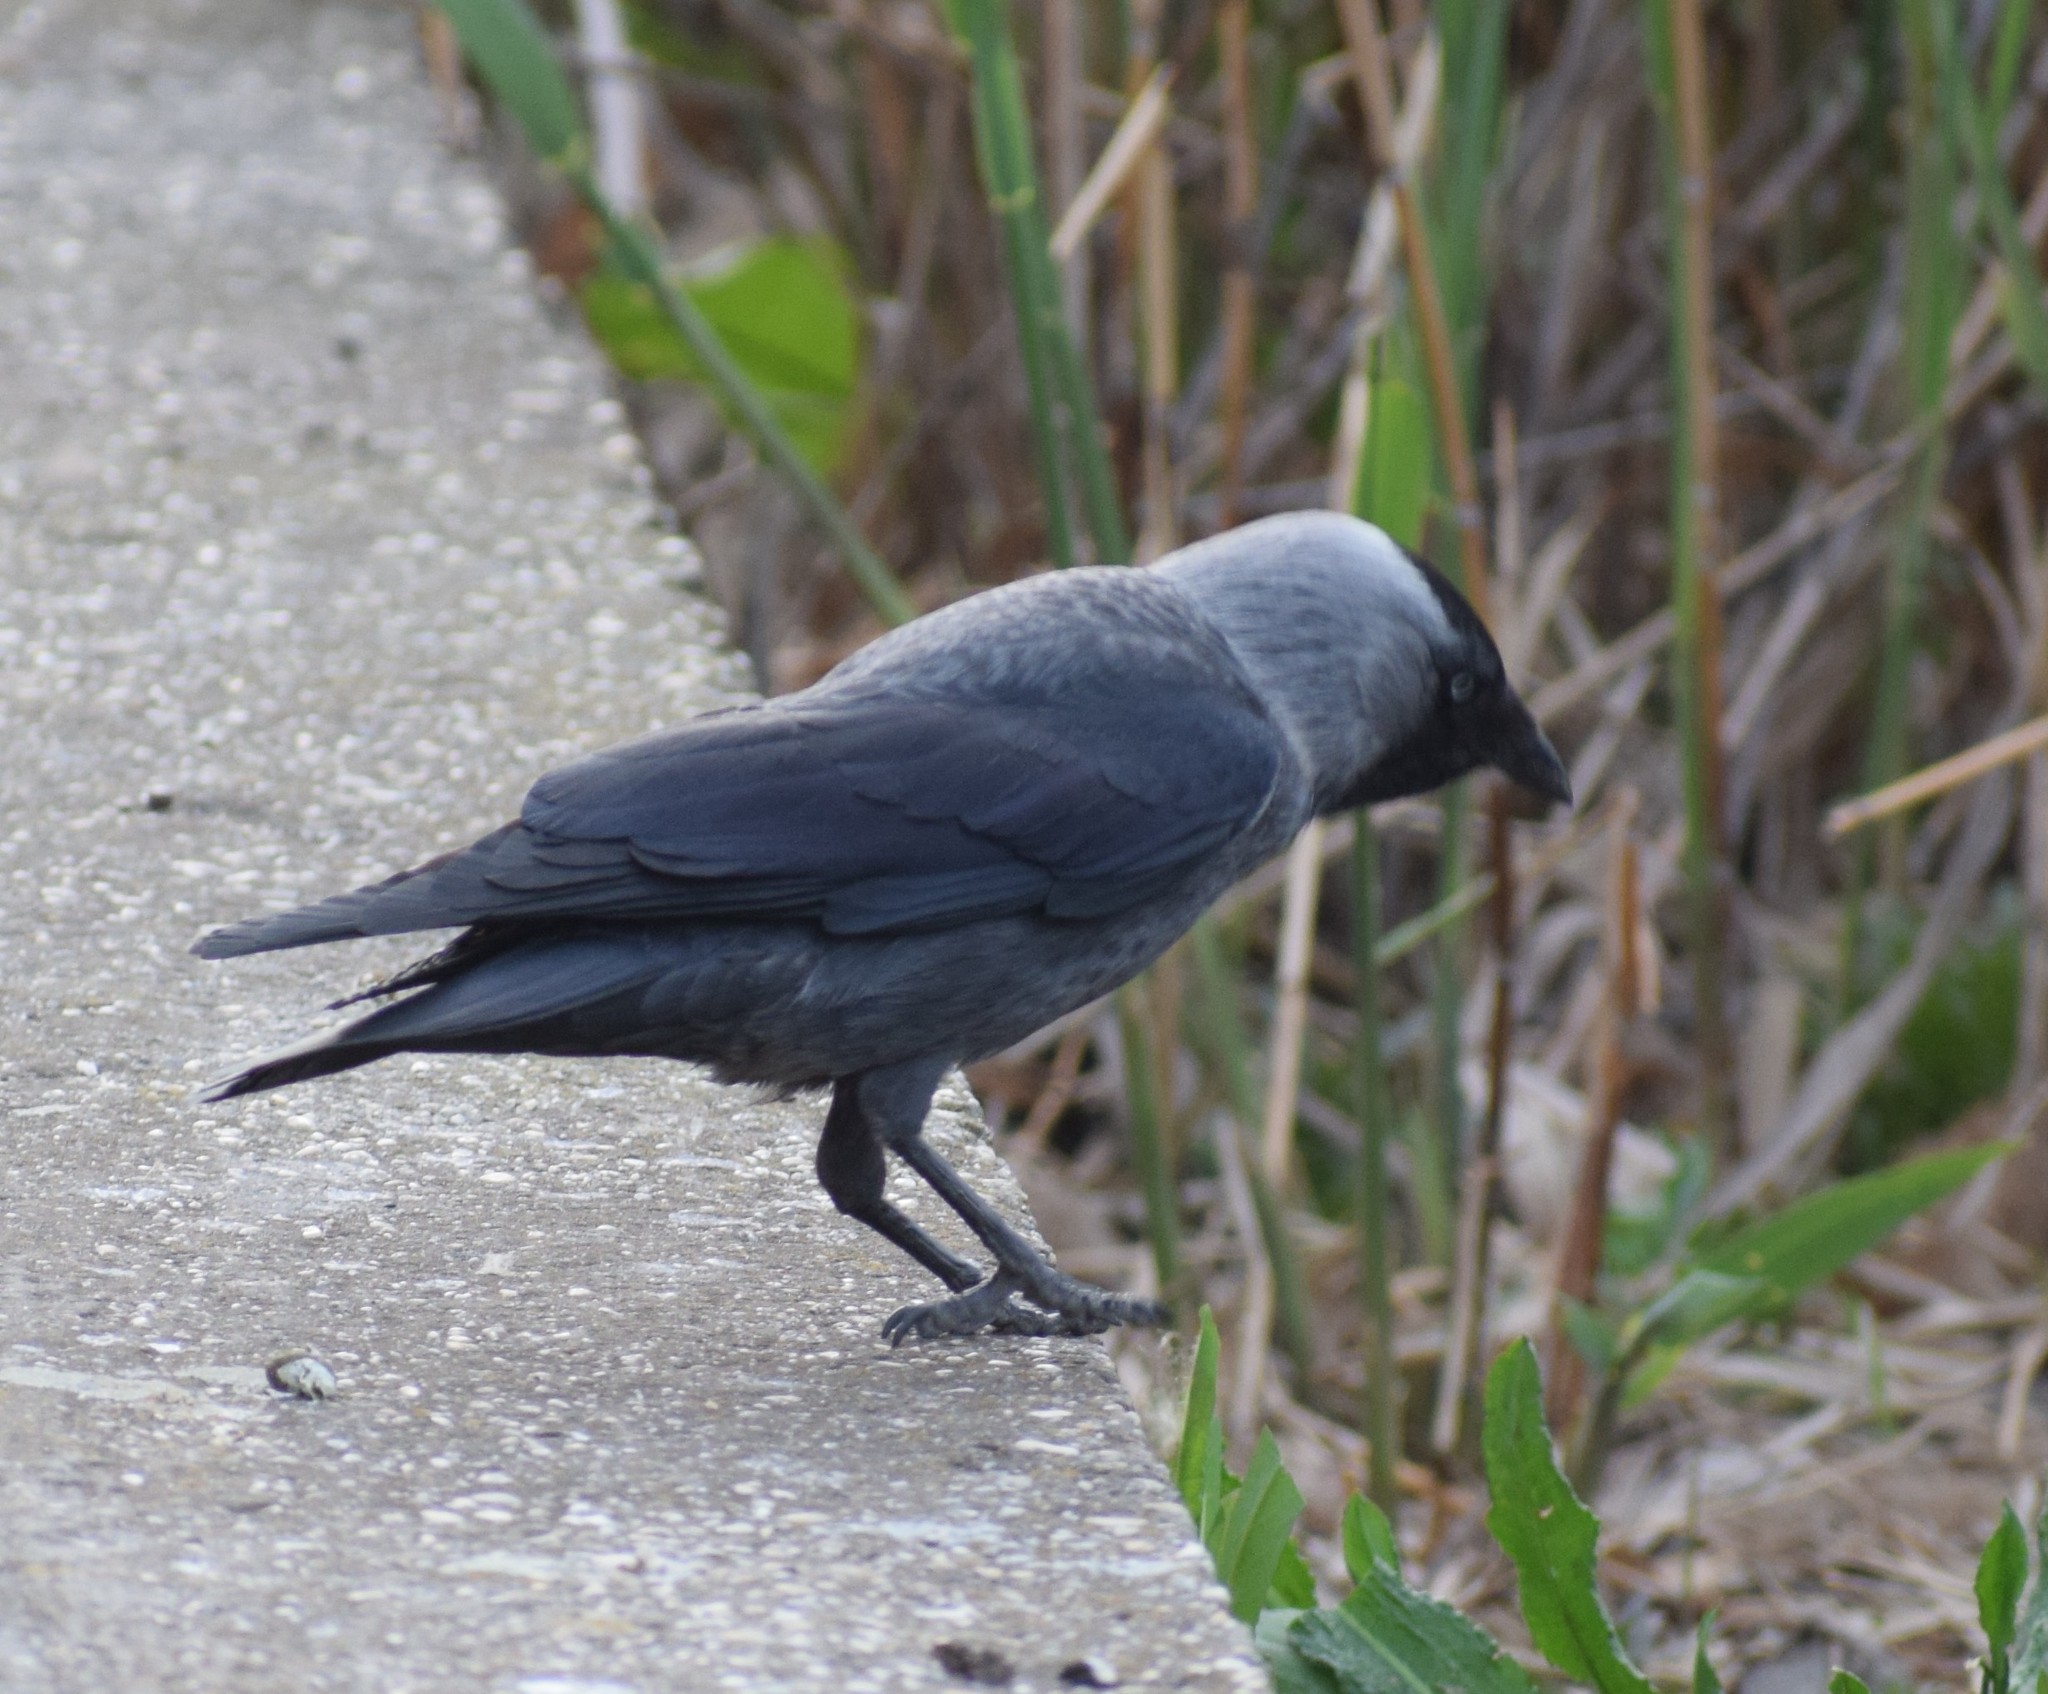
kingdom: Animalia
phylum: Chordata
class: Aves
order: Passeriformes
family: Corvidae
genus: Coloeus
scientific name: Coloeus monedula
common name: Western jackdaw
